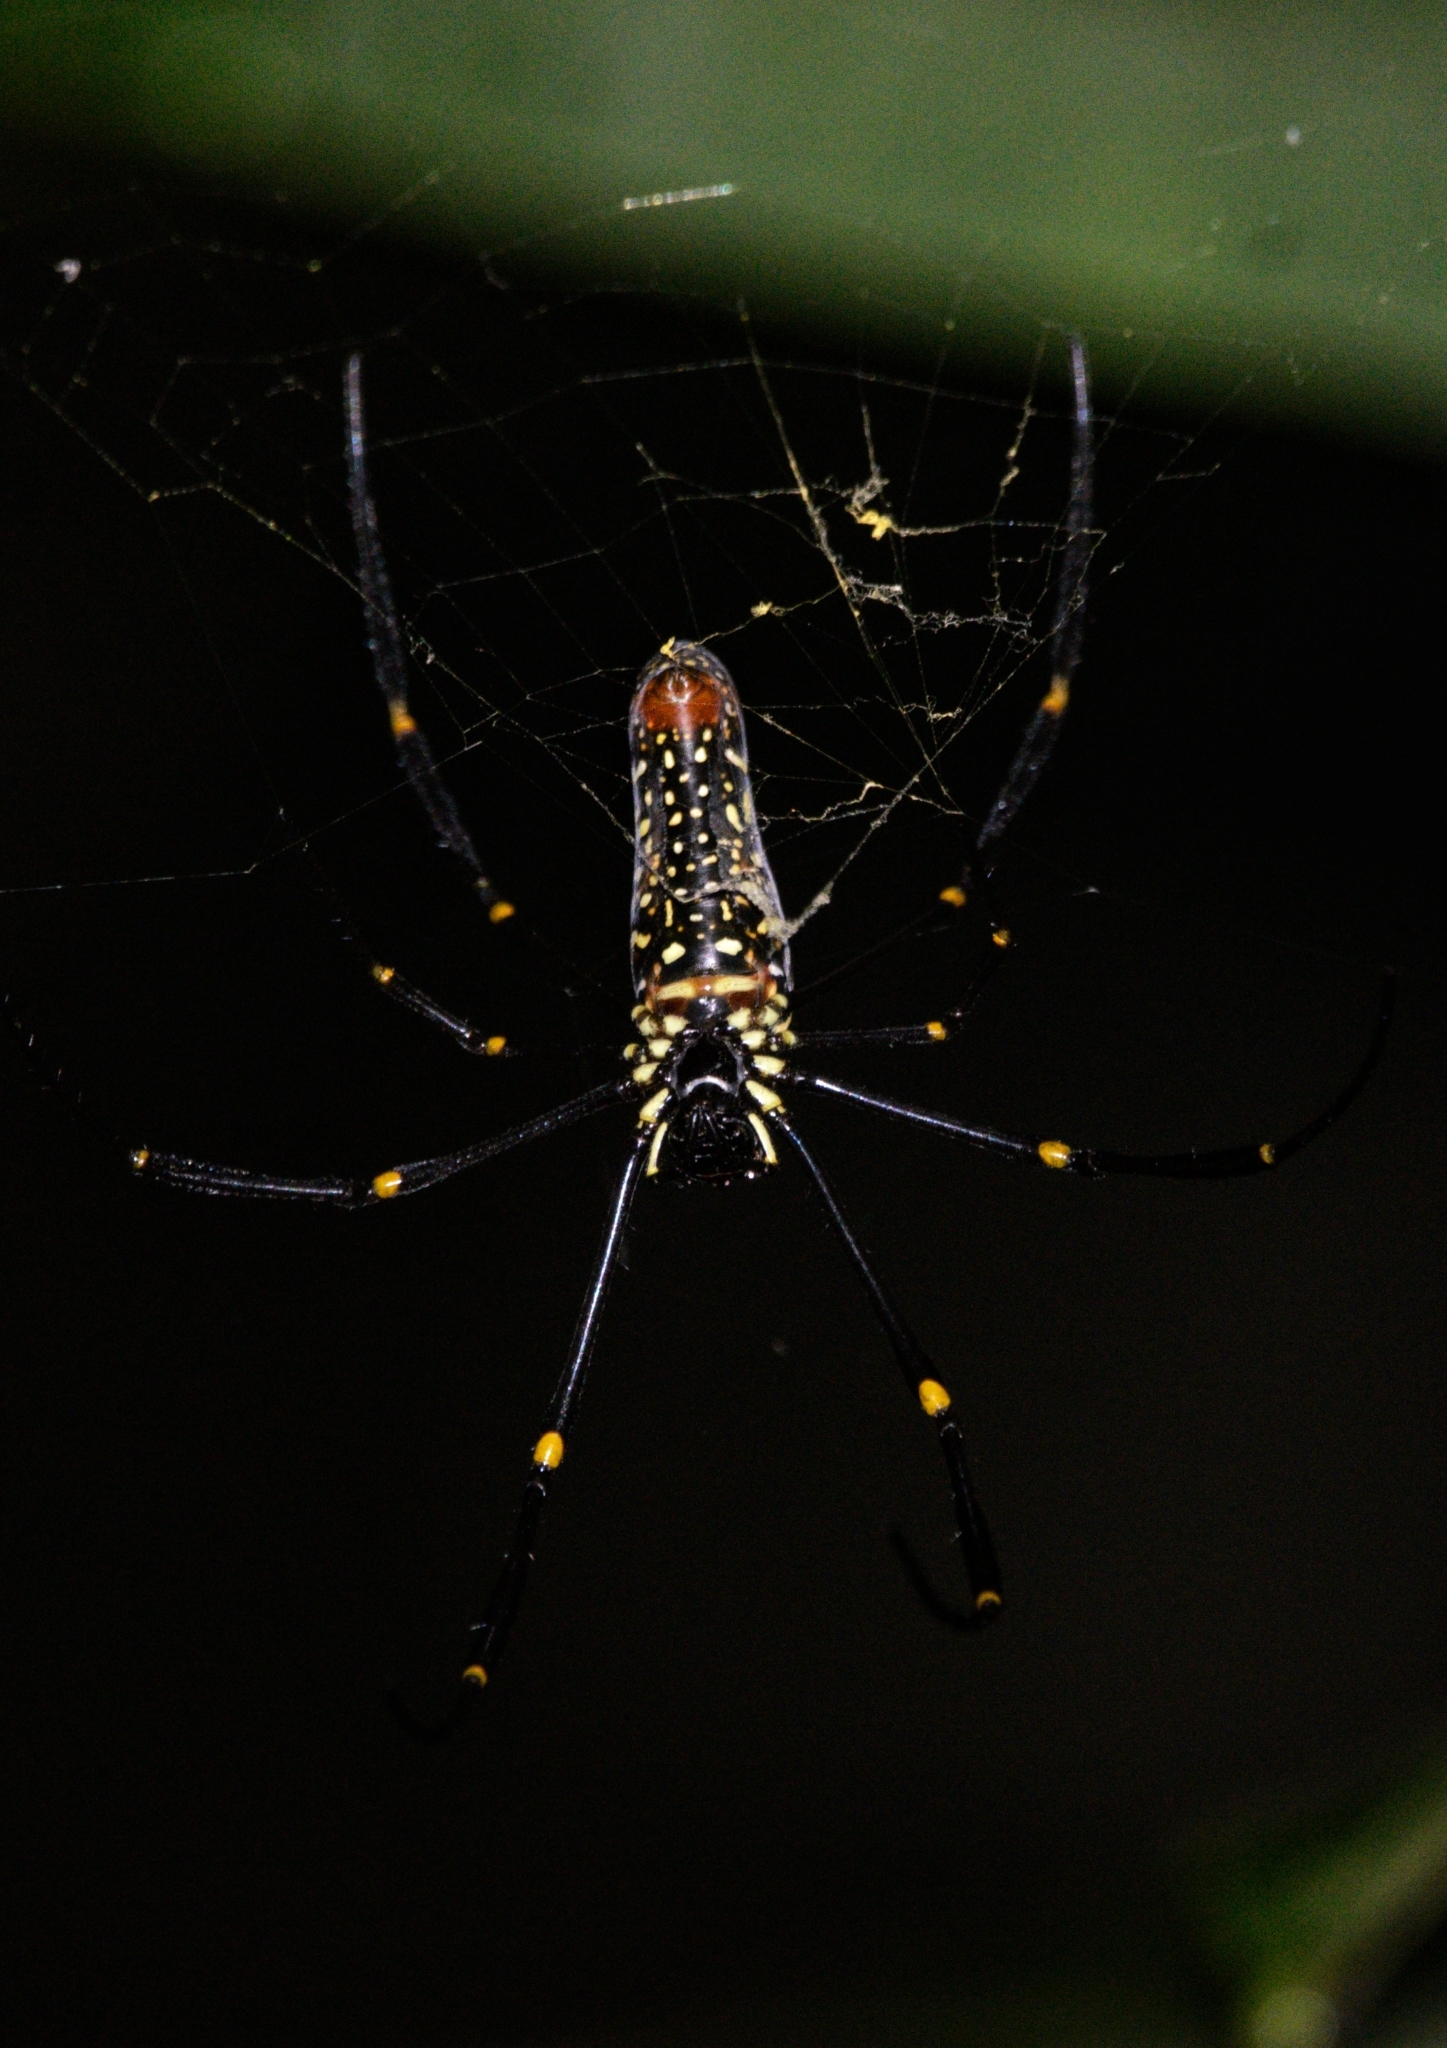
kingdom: Animalia
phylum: Arthropoda
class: Arachnida
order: Araneae
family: Araneidae
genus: Nephila
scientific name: Nephila pilipes
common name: Giant golden orb weaver
